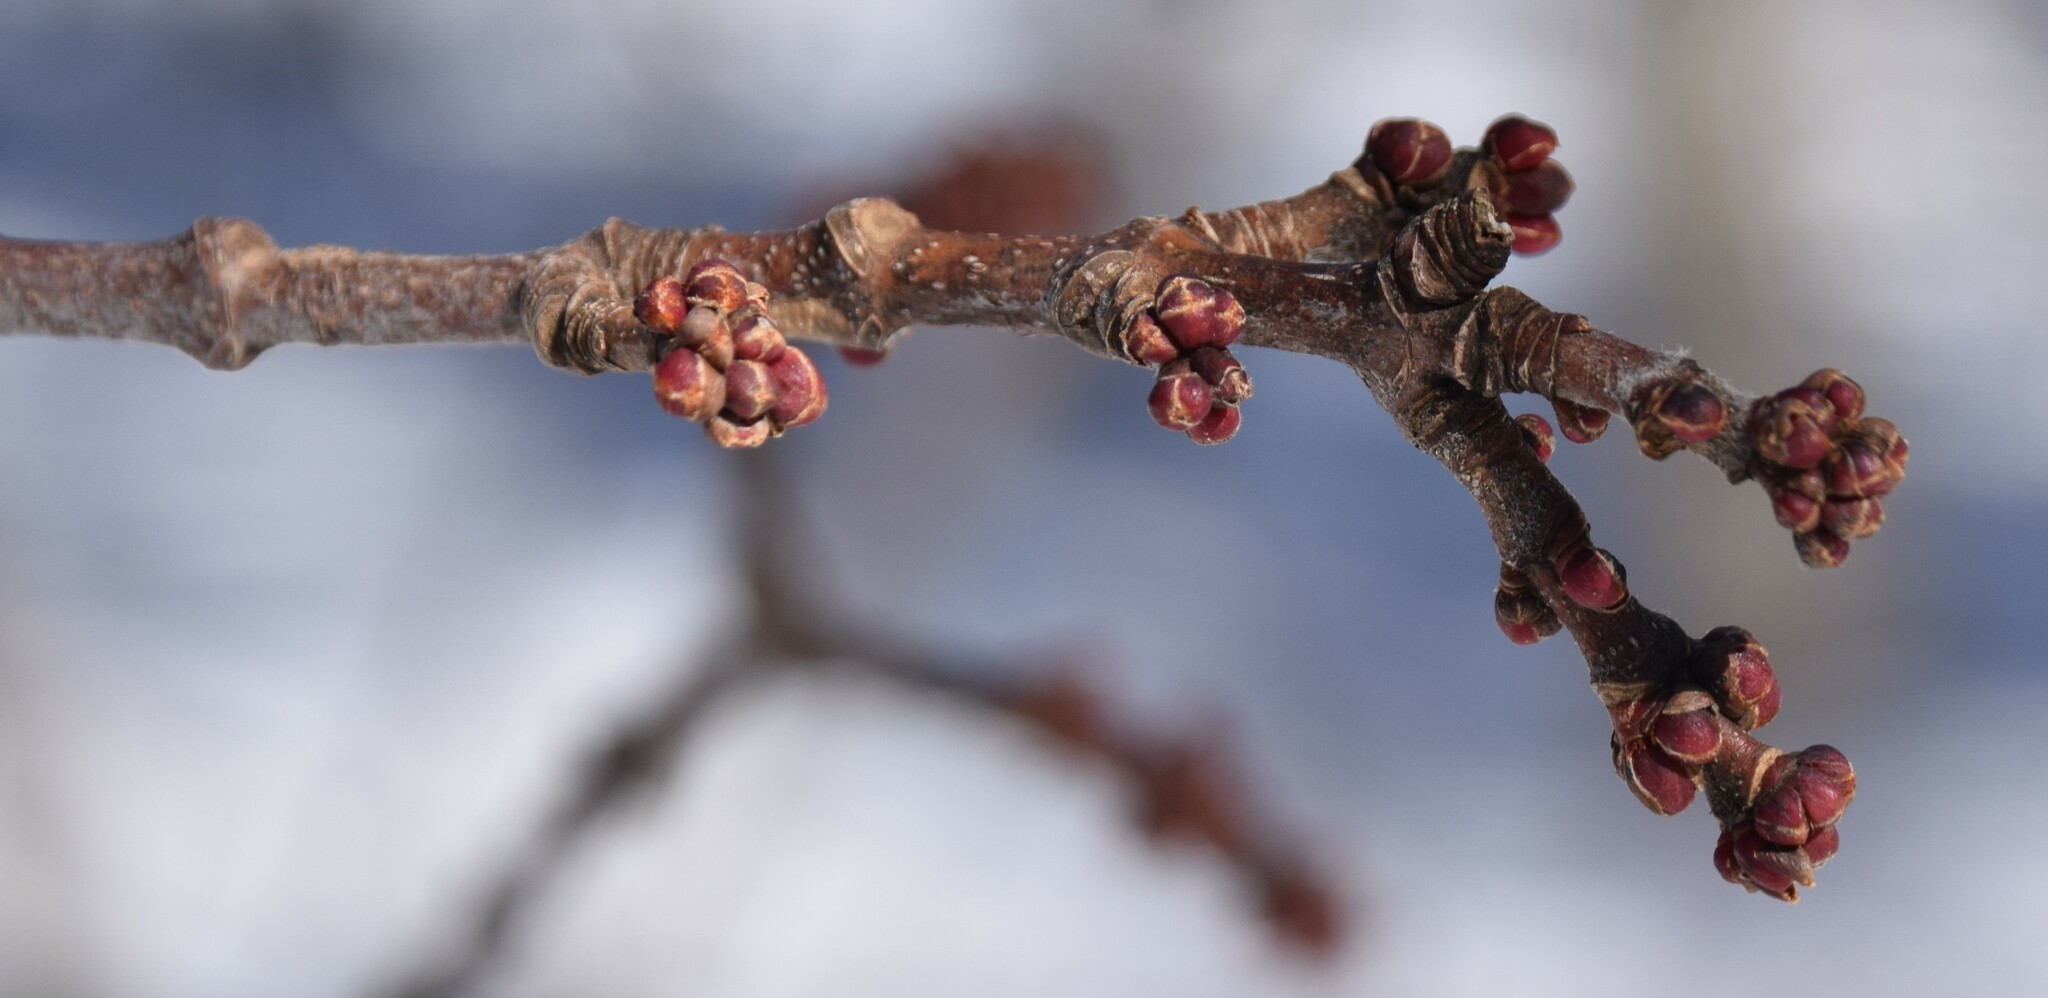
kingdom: Plantae
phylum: Tracheophyta
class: Magnoliopsida
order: Sapindales
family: Sapindaceae
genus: Acer
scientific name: Acer rubrum
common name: Red maple
